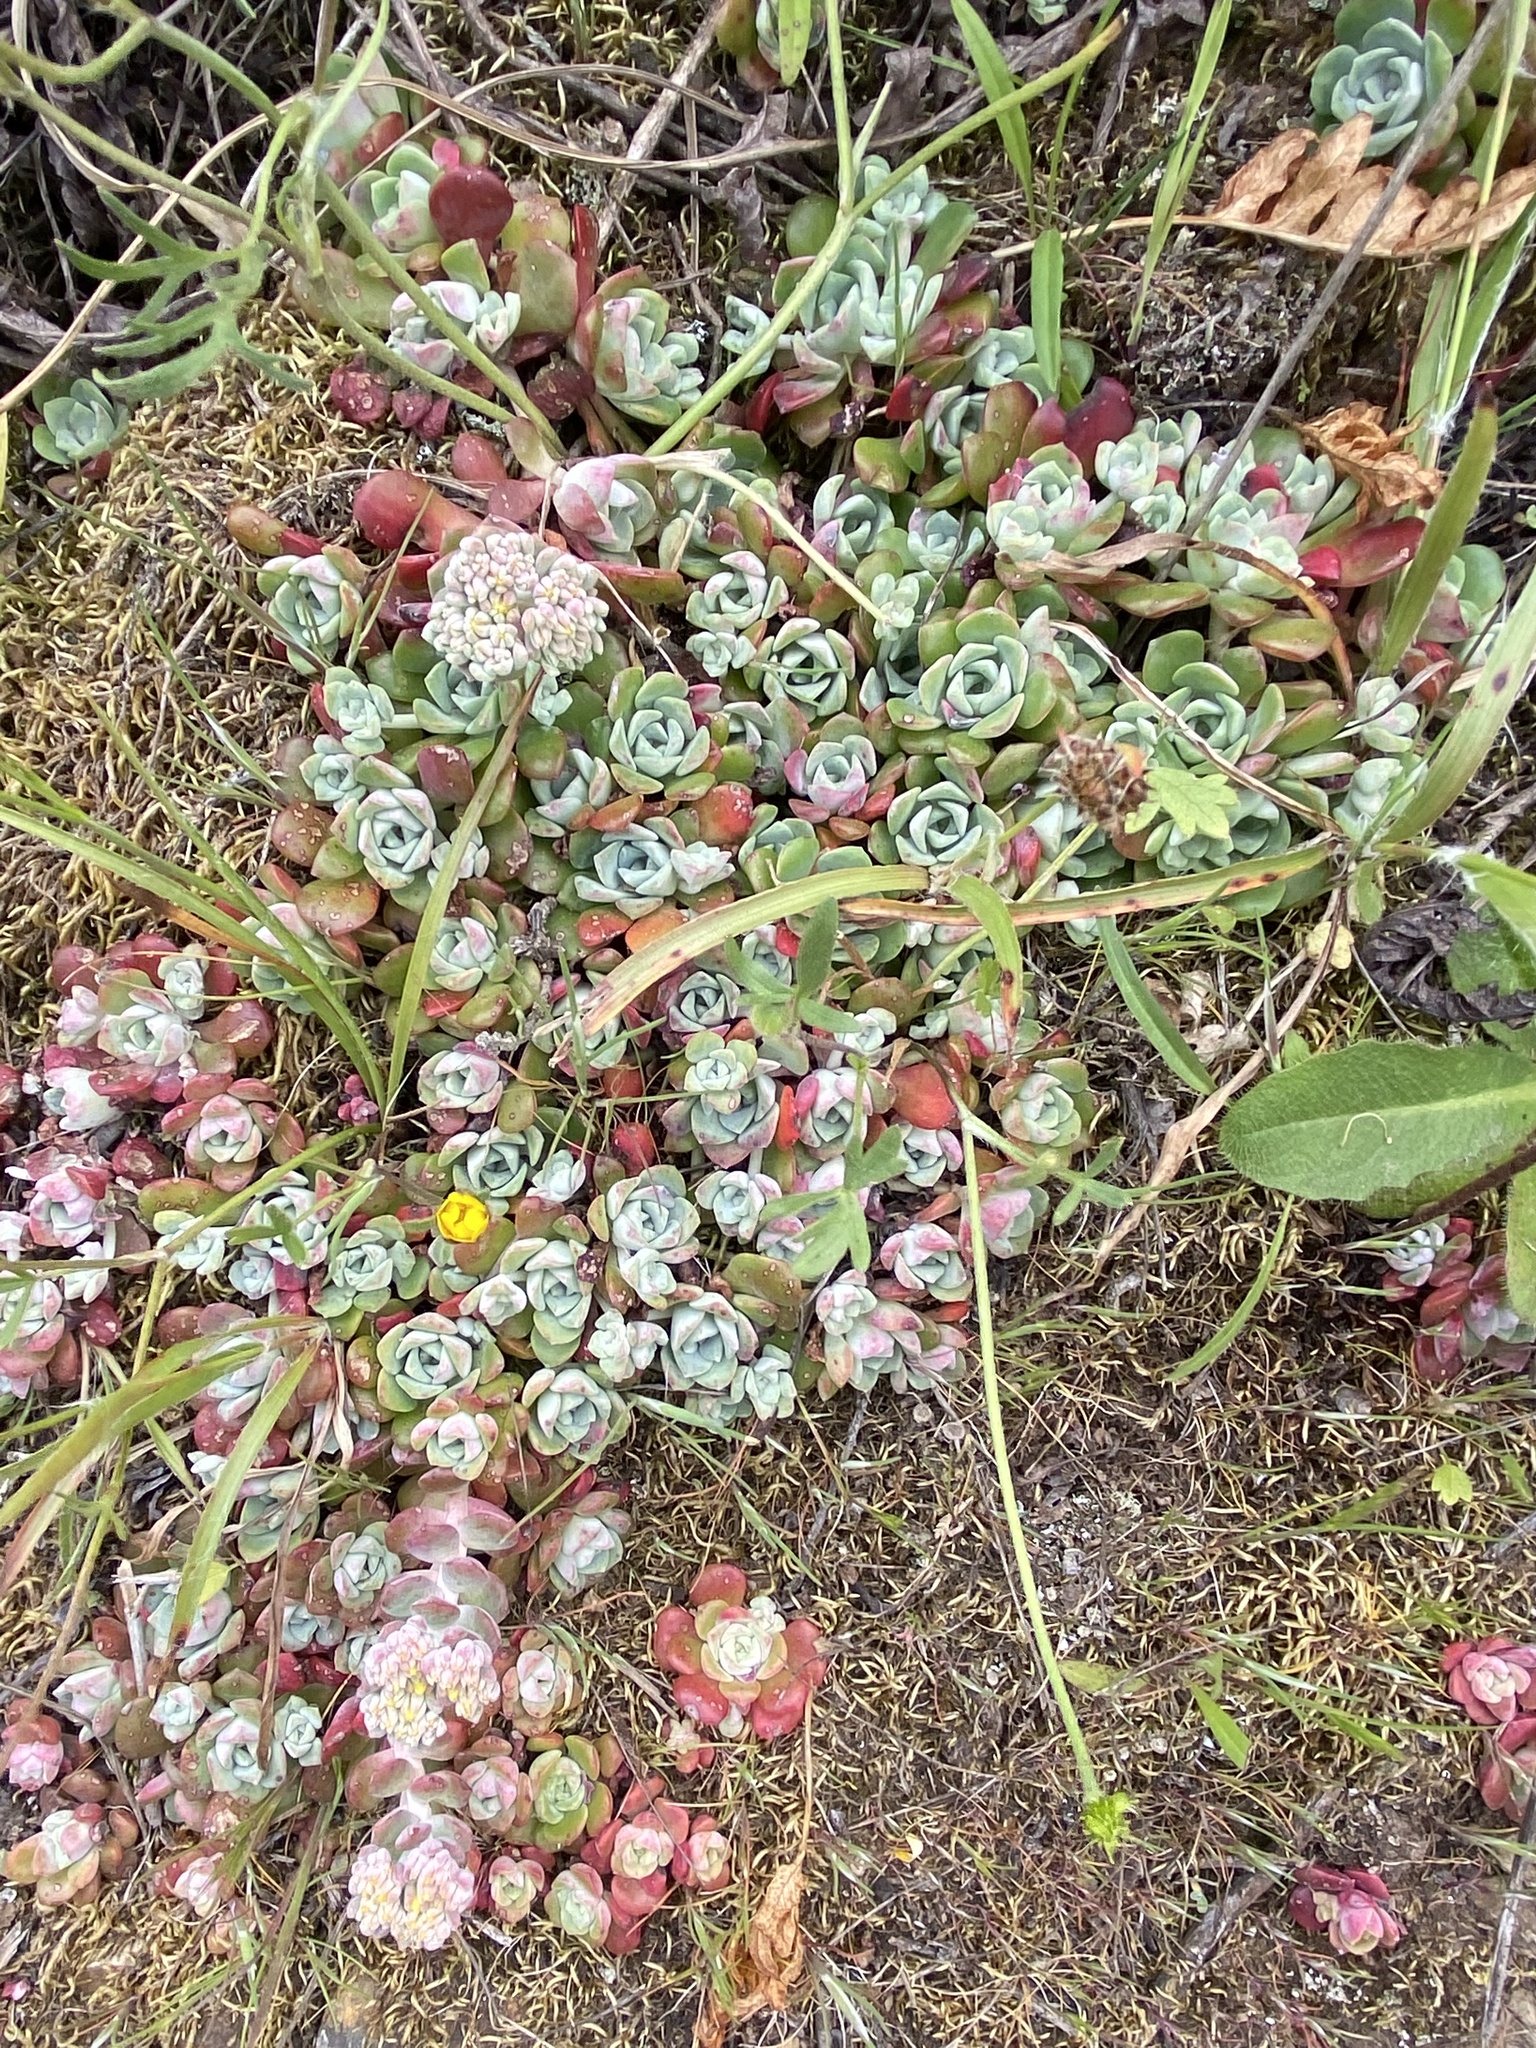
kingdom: Plantae
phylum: Tracheophyta
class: Magnoliopsida
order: Saxifragales
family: Crassulaceae
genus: Sedum
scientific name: Sedum spathulifolium
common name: Colorado stonecrop
